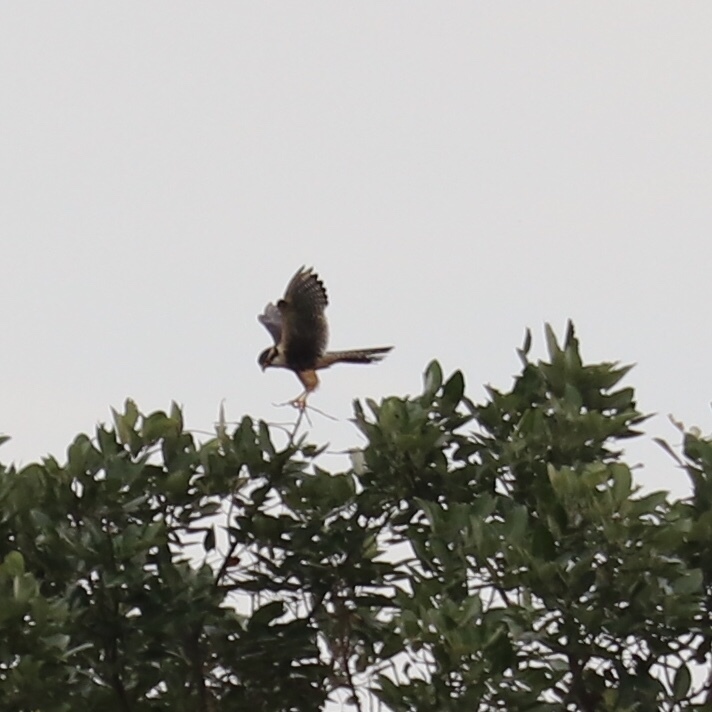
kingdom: Animalia
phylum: Chordata
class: Aves
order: Falconiformes
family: Falconidae
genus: Falco
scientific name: Falco femoralis
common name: Aplomado falcon
